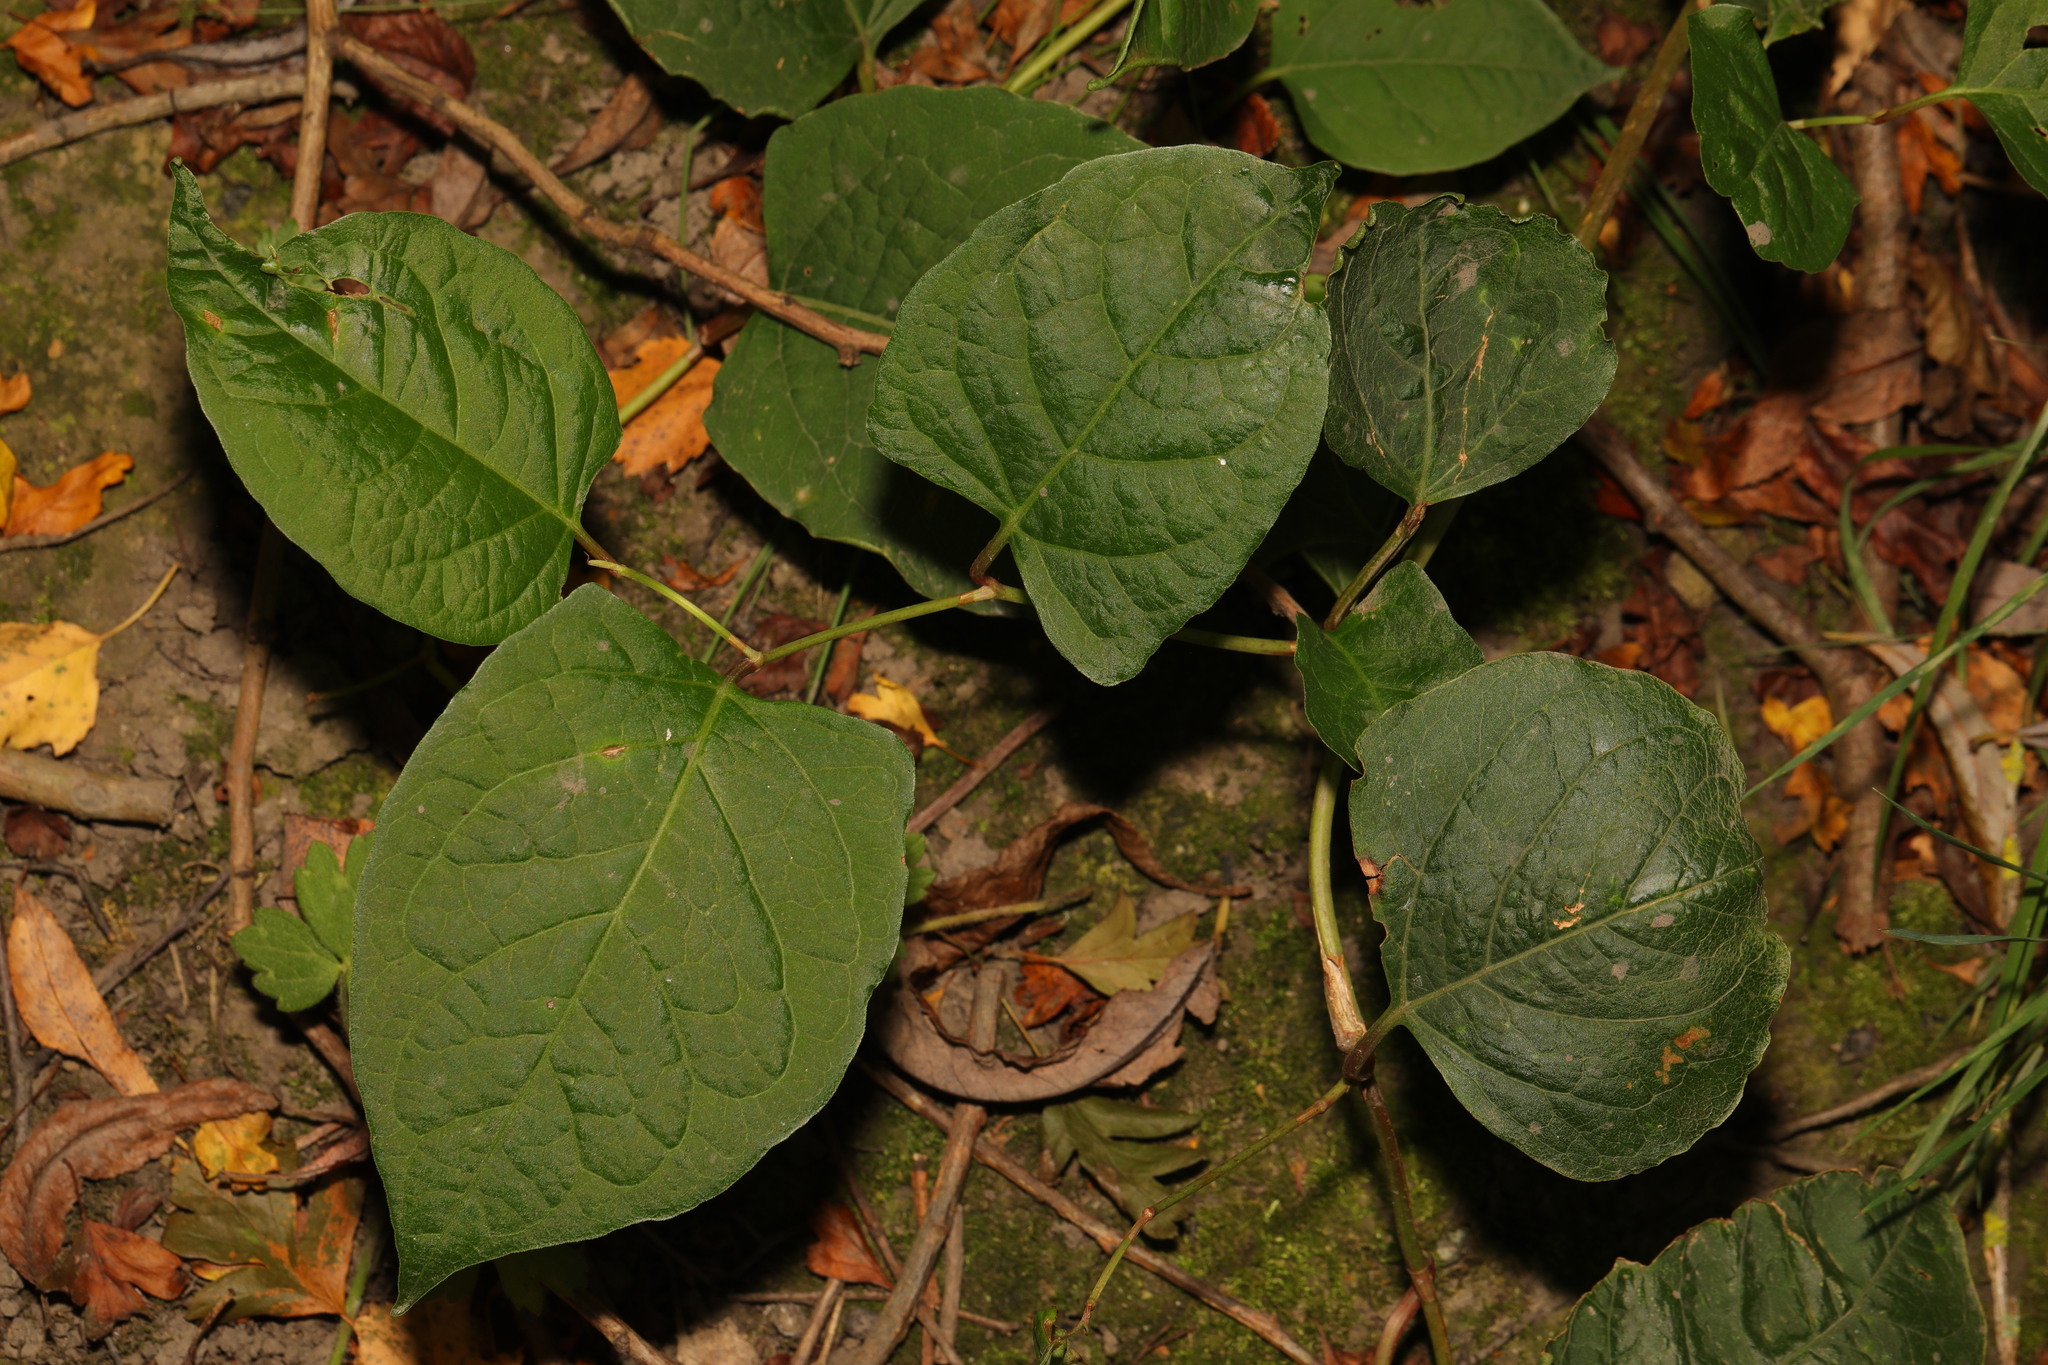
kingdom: Plantae
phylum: Tracheophyta
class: Magnoliopsida
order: Caryophyllales
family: Polygonaceae
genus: Reynoutria
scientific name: Reynoutria bohemica
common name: Bohemian knotweed
